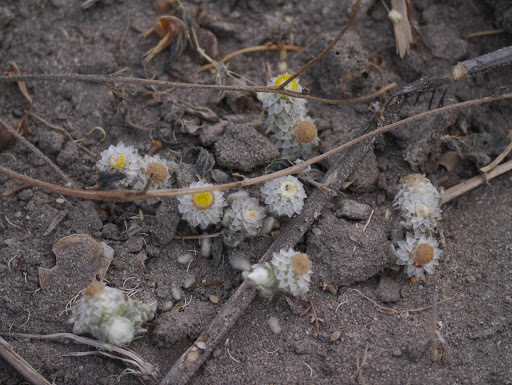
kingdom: Plantae
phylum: Tracheophyta
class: Magnoliopsida
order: Asterales
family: Asteraceae
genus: Helichrysum
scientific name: Helichrysum argyrosphaerum
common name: Wild everlasting
